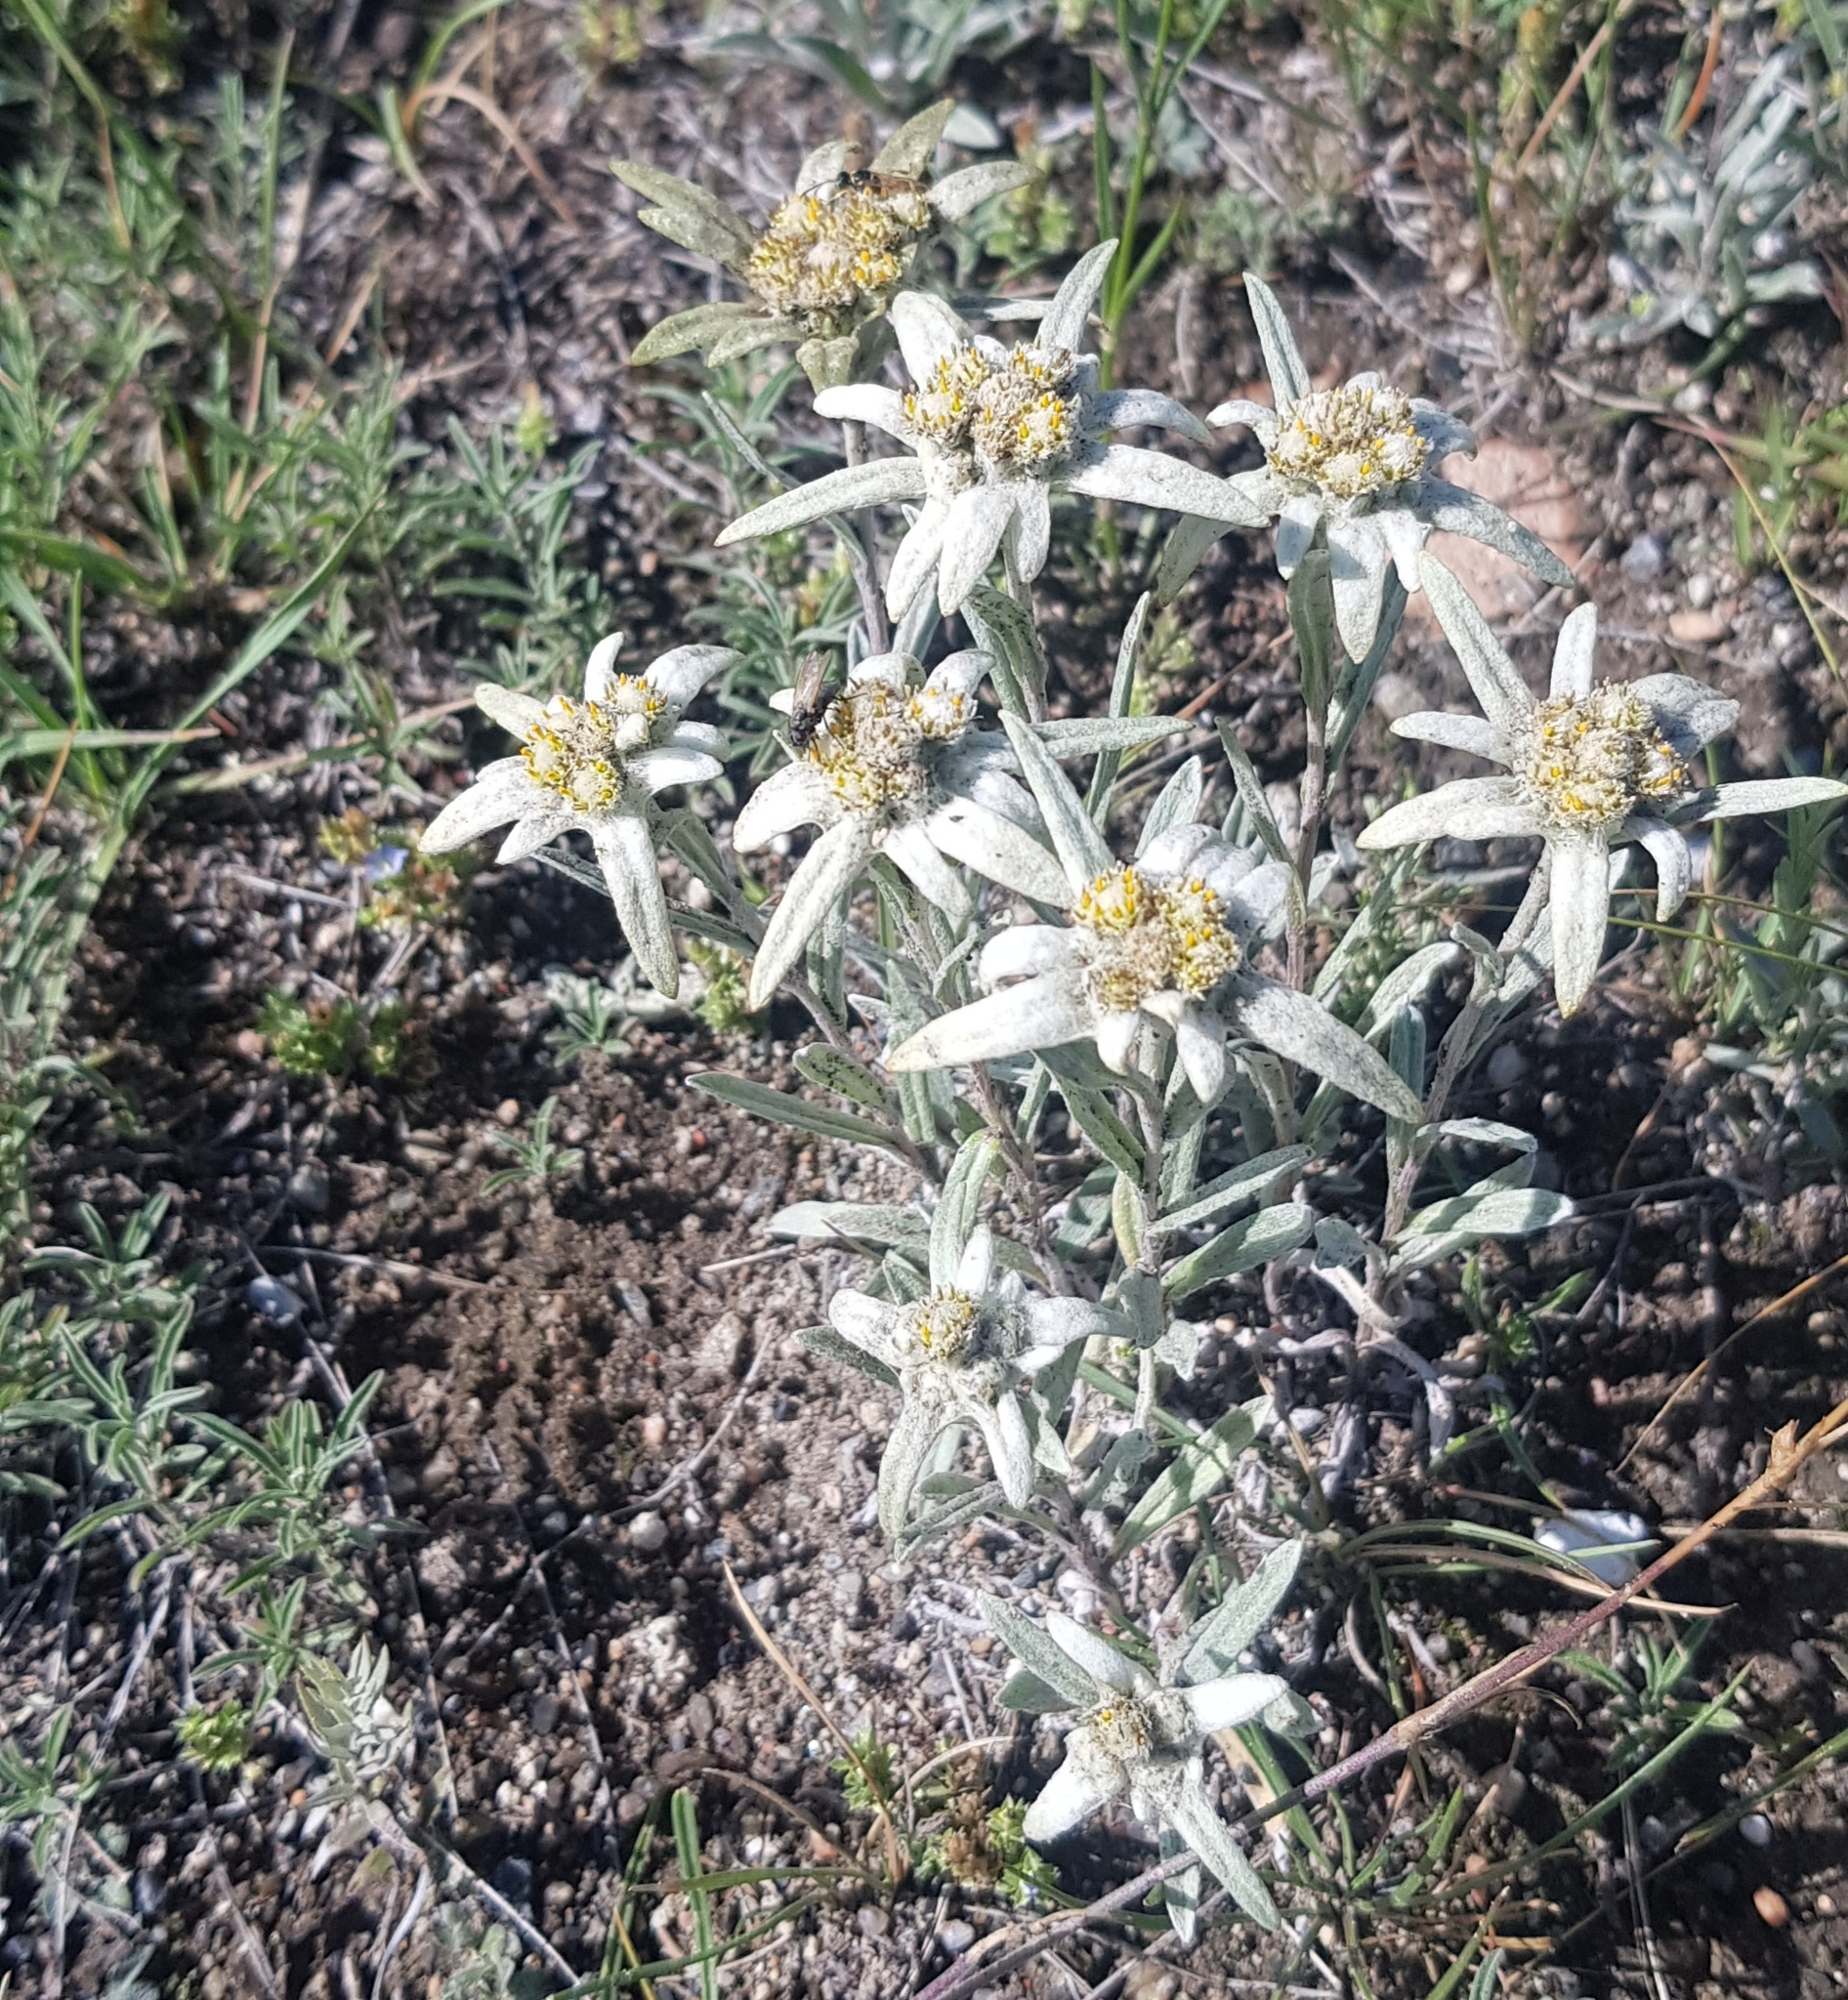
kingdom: Plantae
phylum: Tracheophyta
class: Magnoliopsida
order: Asterales
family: Asteraceae
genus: Leontopodium
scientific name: Leontopodium leontopodinum
